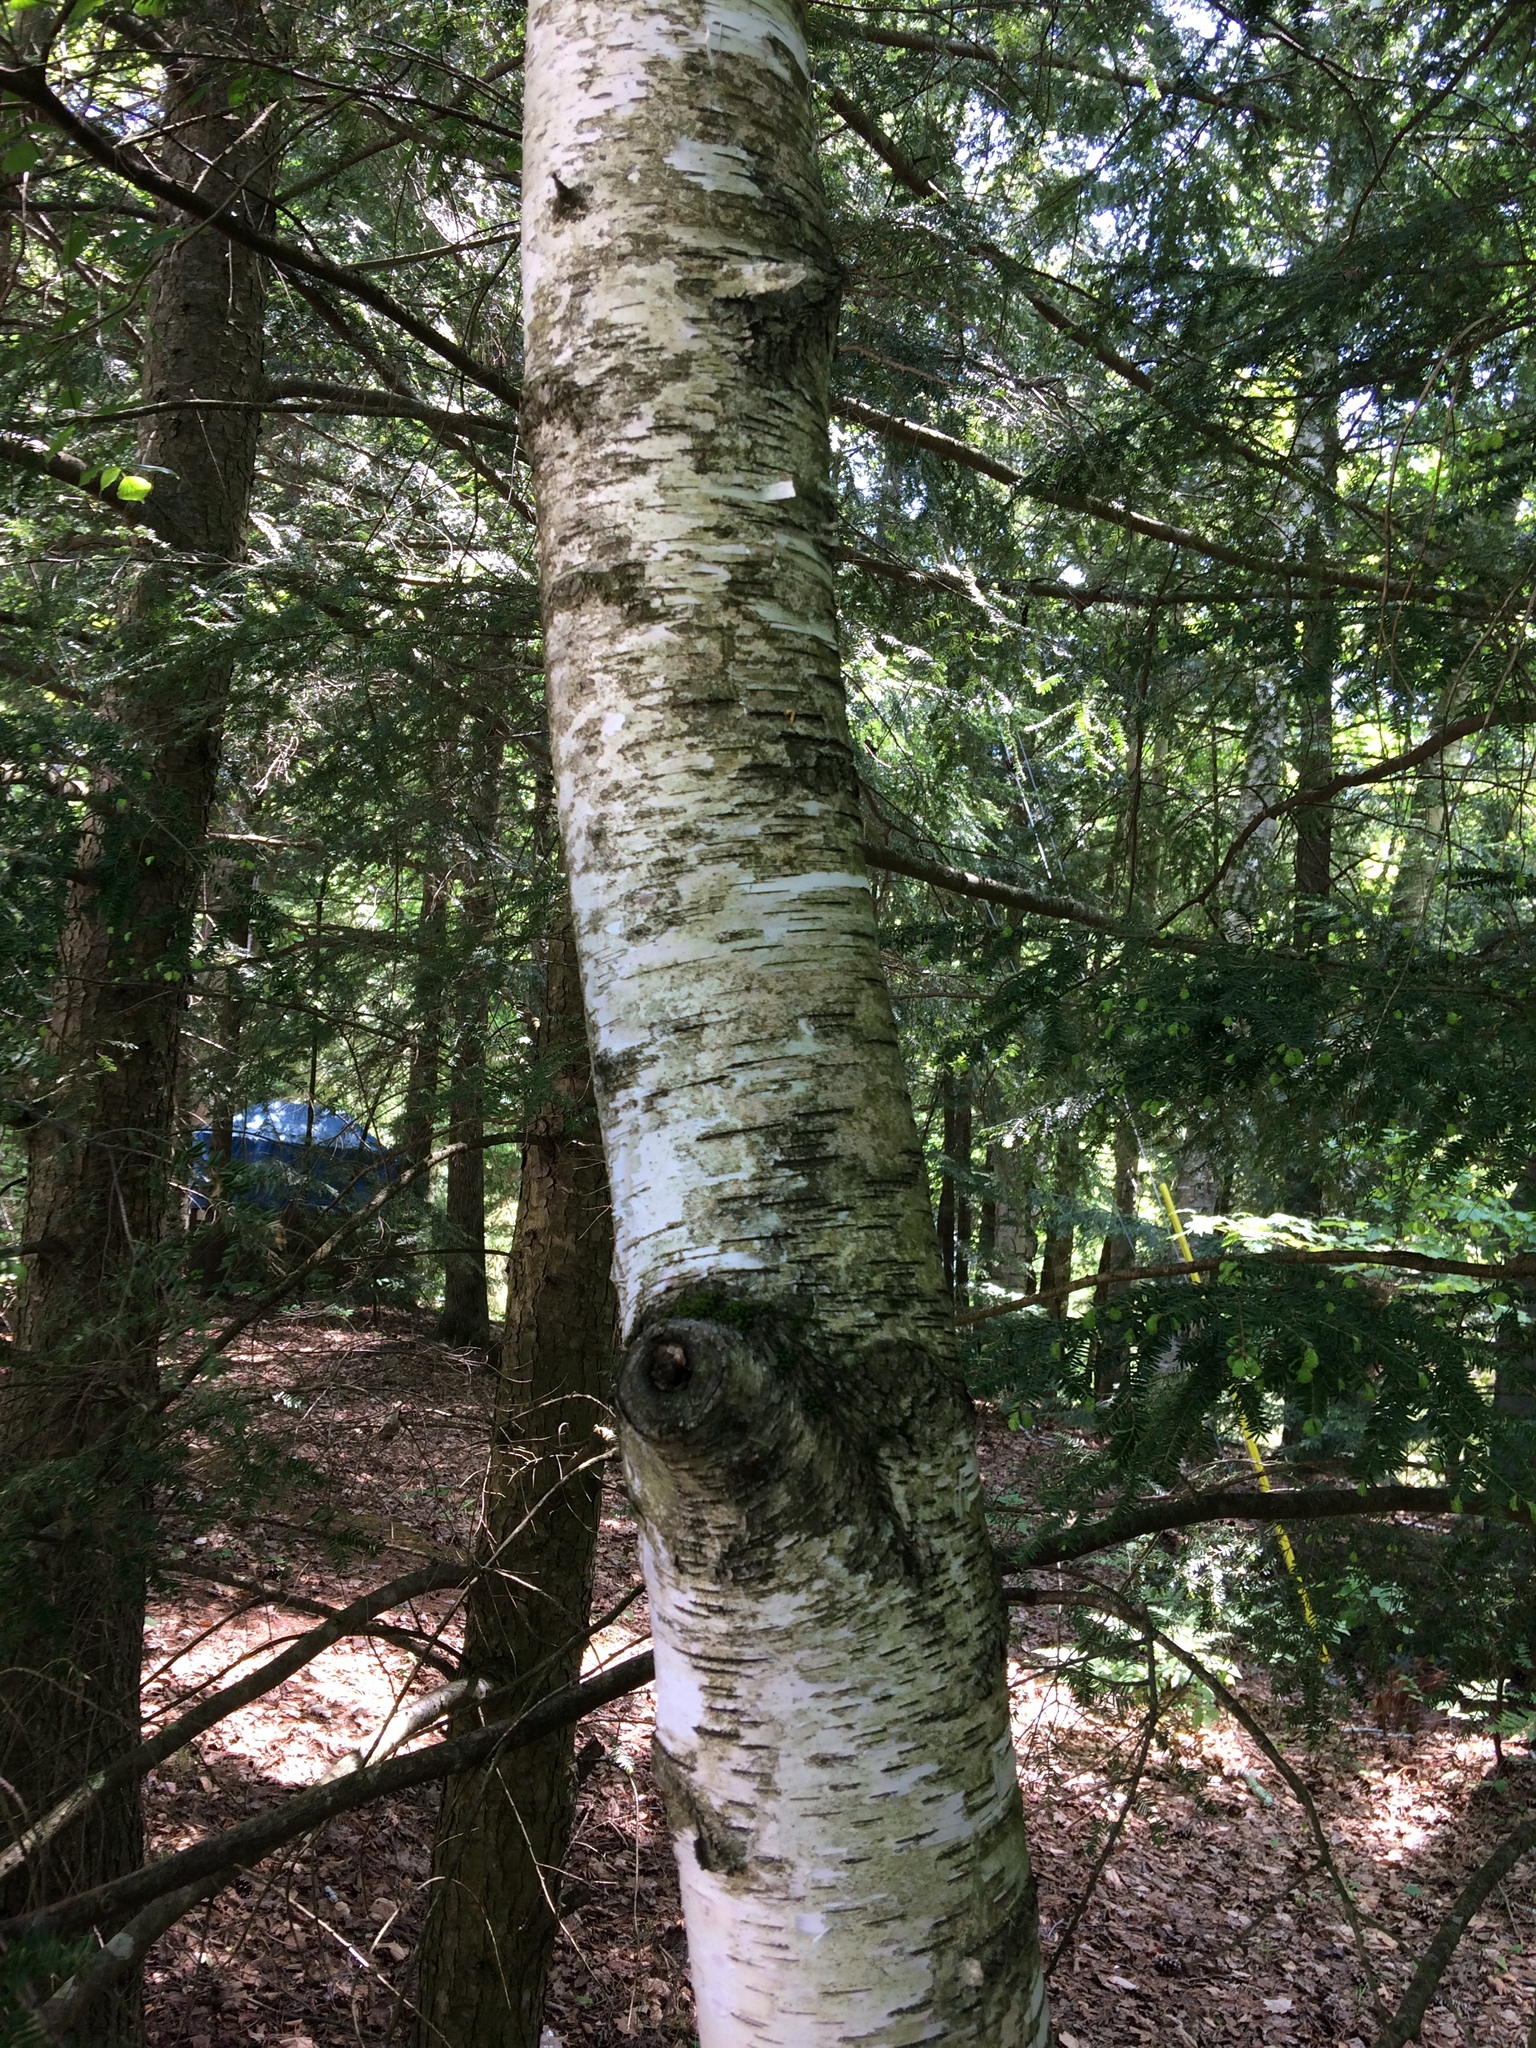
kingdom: Plantae
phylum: Tracheophyta
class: Magnoliopsida
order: Fagales
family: Betulaceae
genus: Betula
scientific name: Betula populifolia
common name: Fire birch
